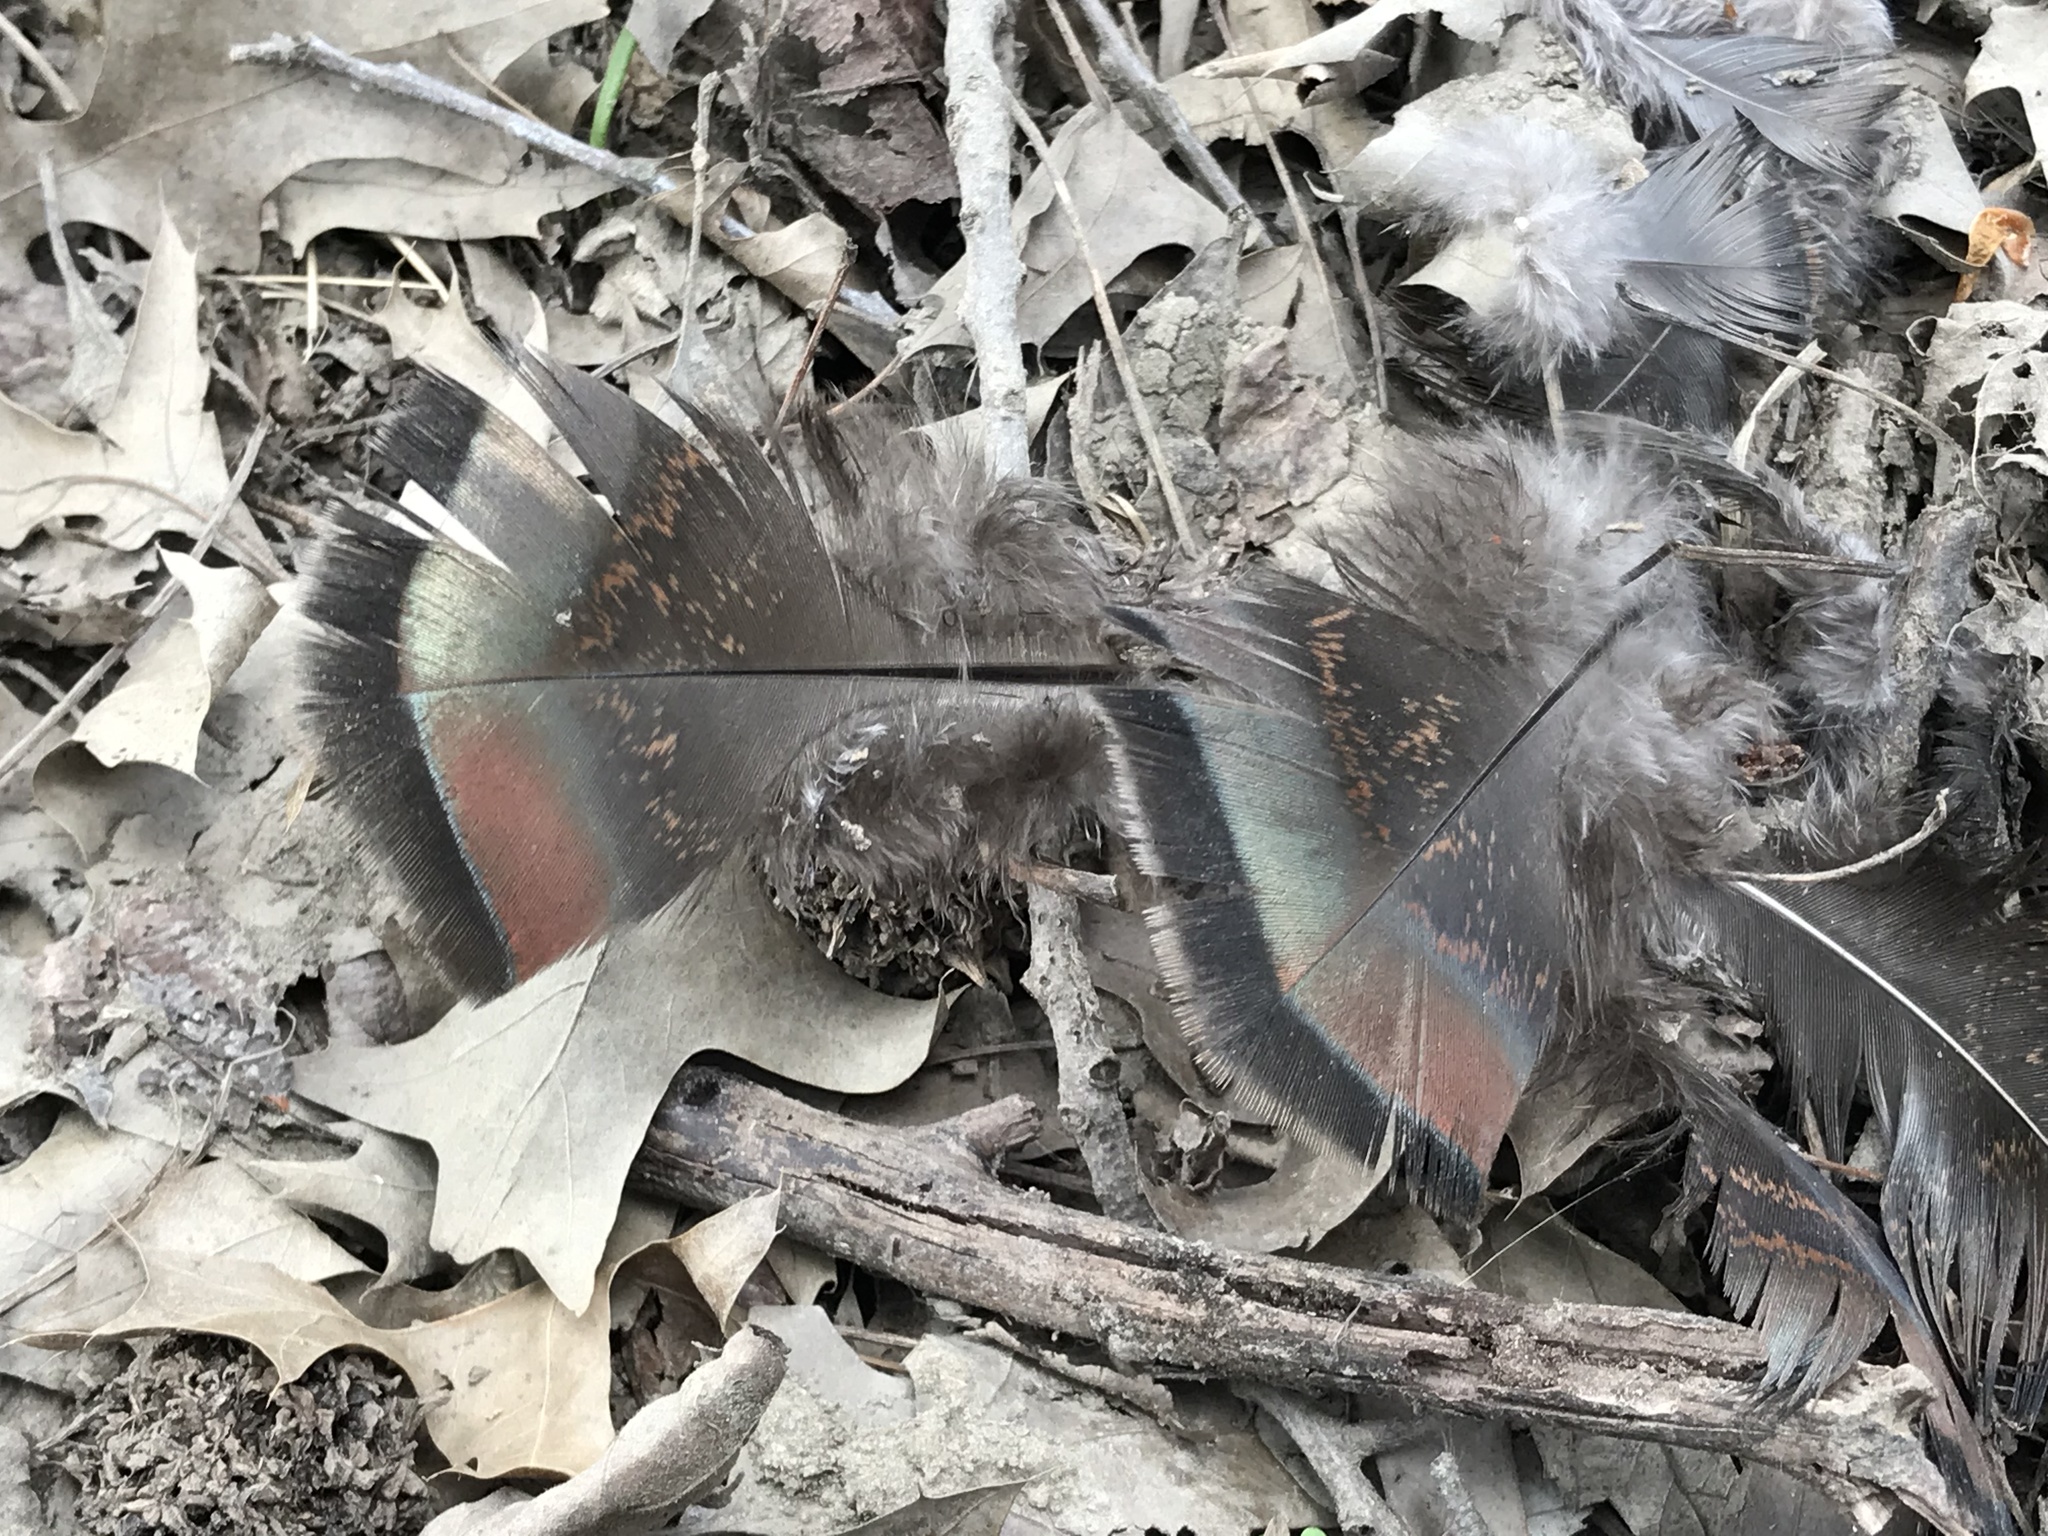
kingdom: Animalia
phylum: Chordata
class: Aves
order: Galliformes
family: Phasianidae
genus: Meleagris
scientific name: Meleagris gallopavo
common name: Wild turkey
